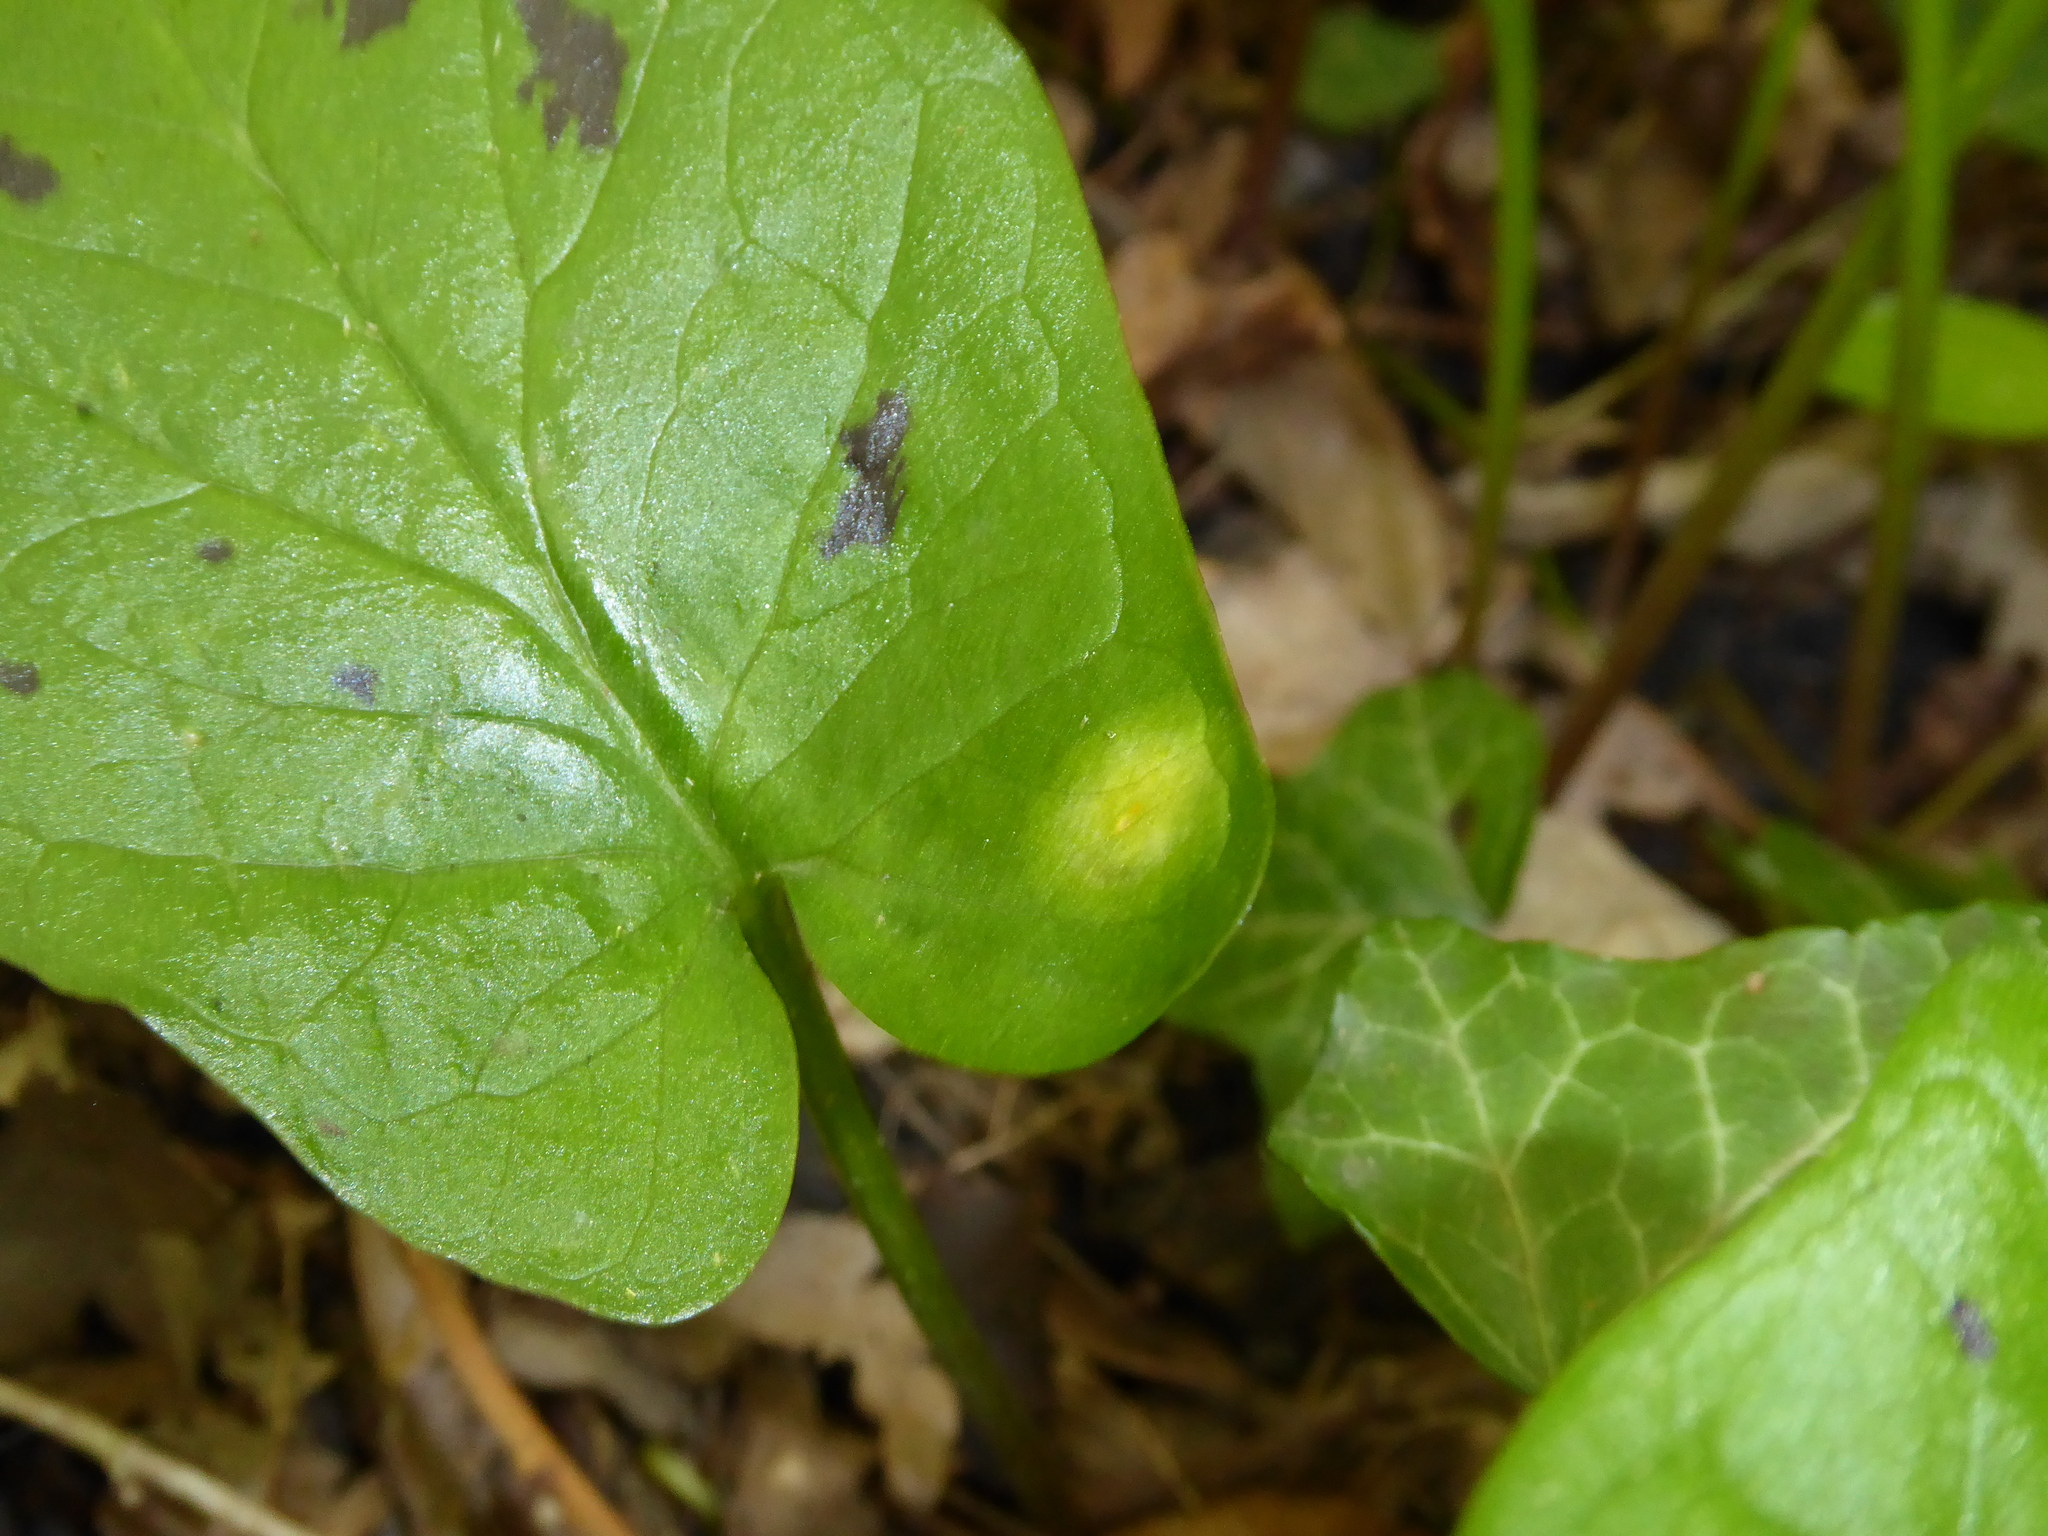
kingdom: Fungi
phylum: Basidiomycota
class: Pucciniomycetes
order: Pucciniales
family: Pucciniaceae
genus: Puccinia
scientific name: Puccinia sessilis
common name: Arum rust
